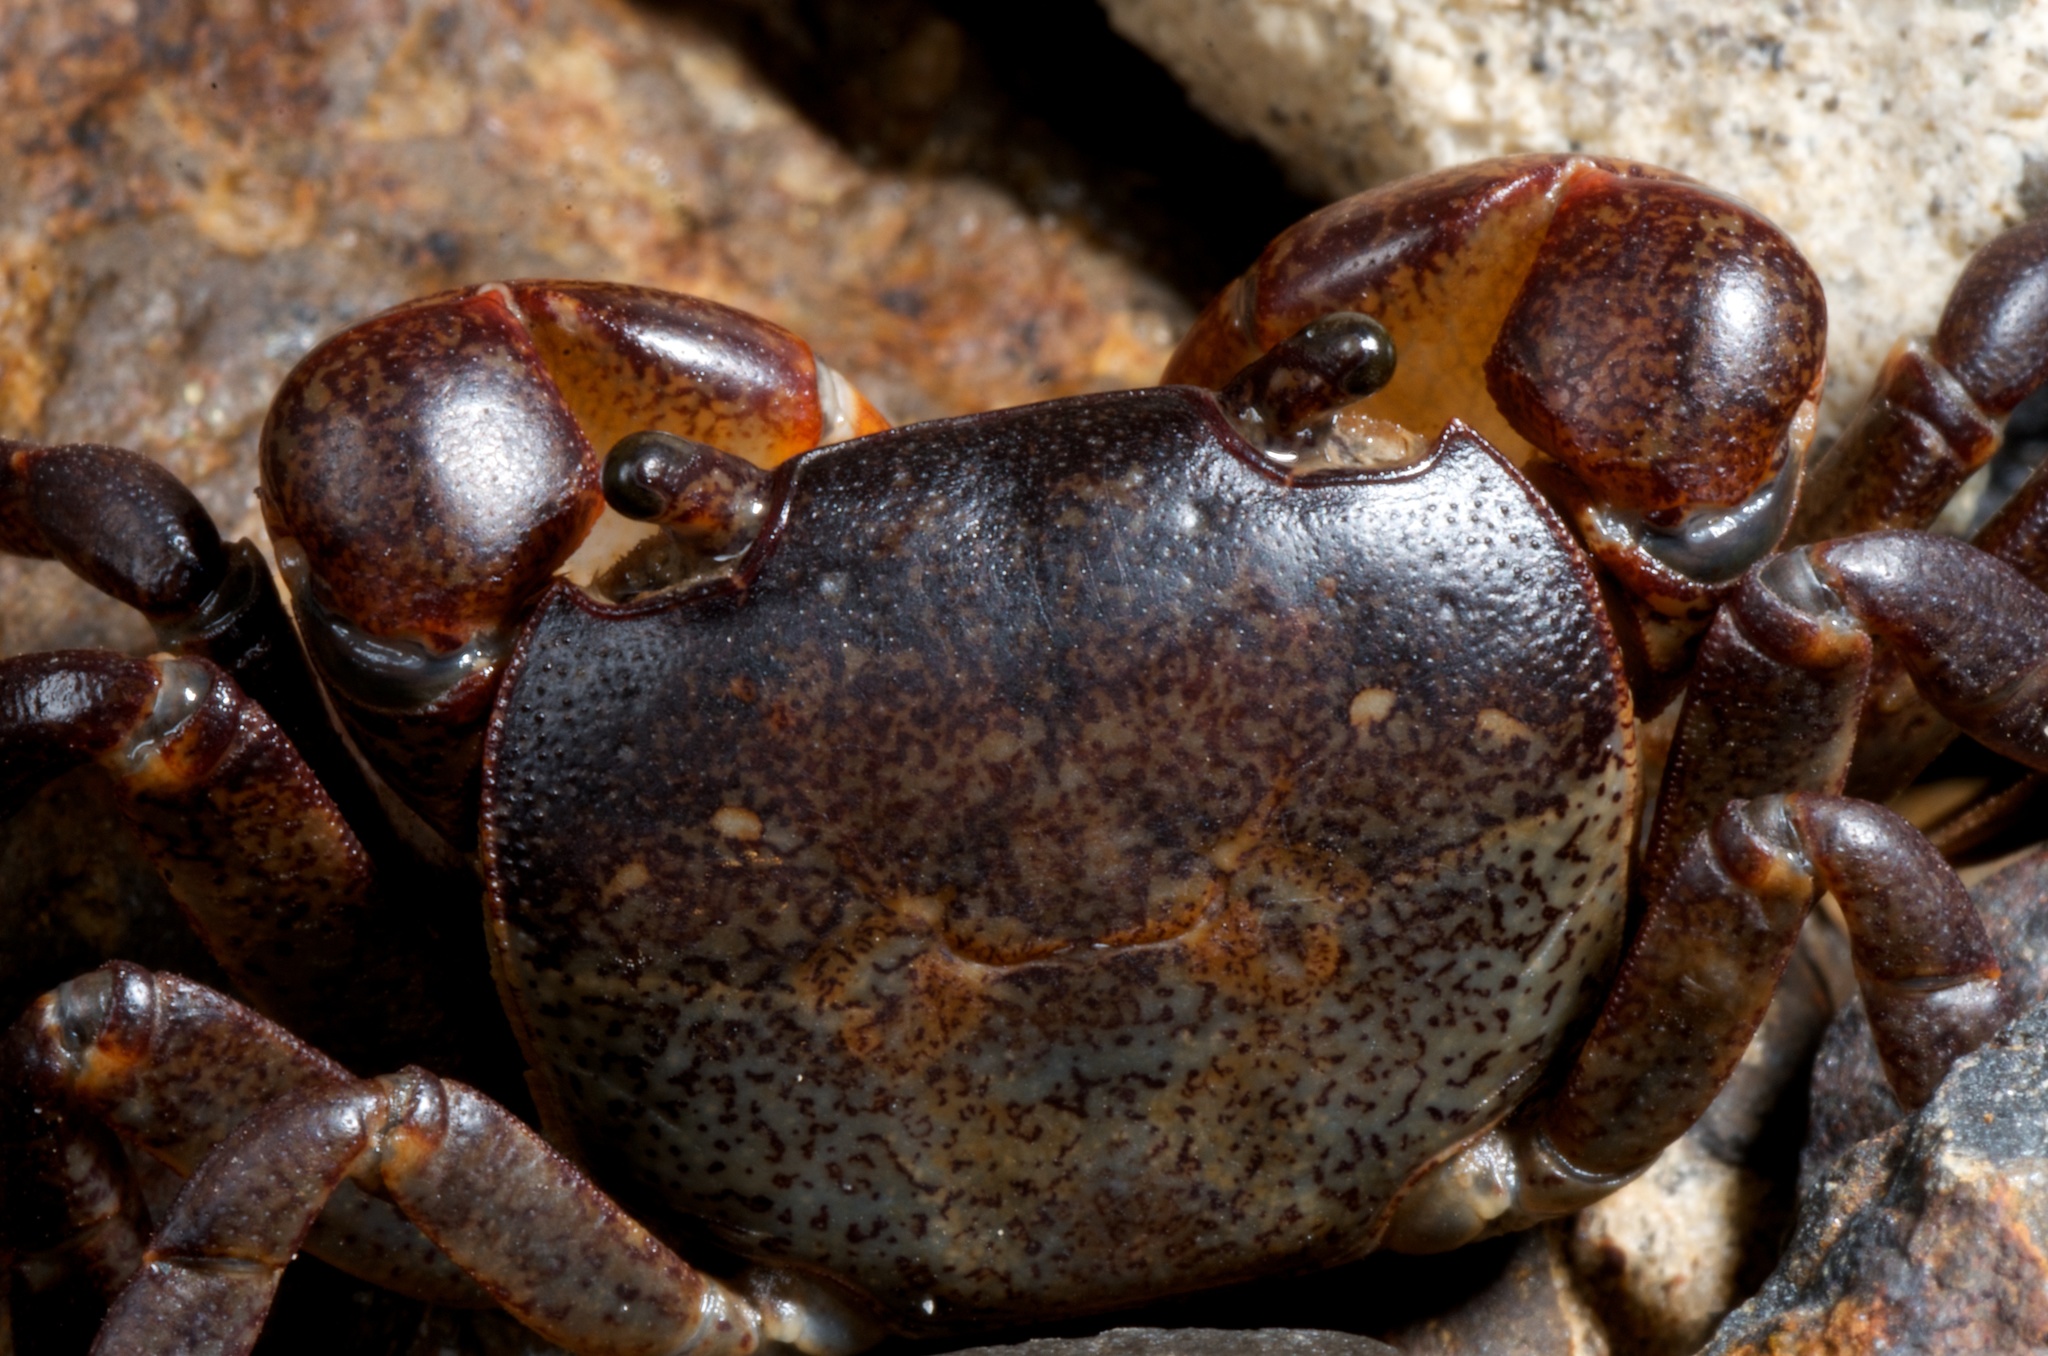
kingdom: Animalia
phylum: Arthropoda
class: Malacostraca
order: Decapoda
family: Varunidae
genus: Cyclograpsus
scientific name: Cyclograpsus lavauxi
